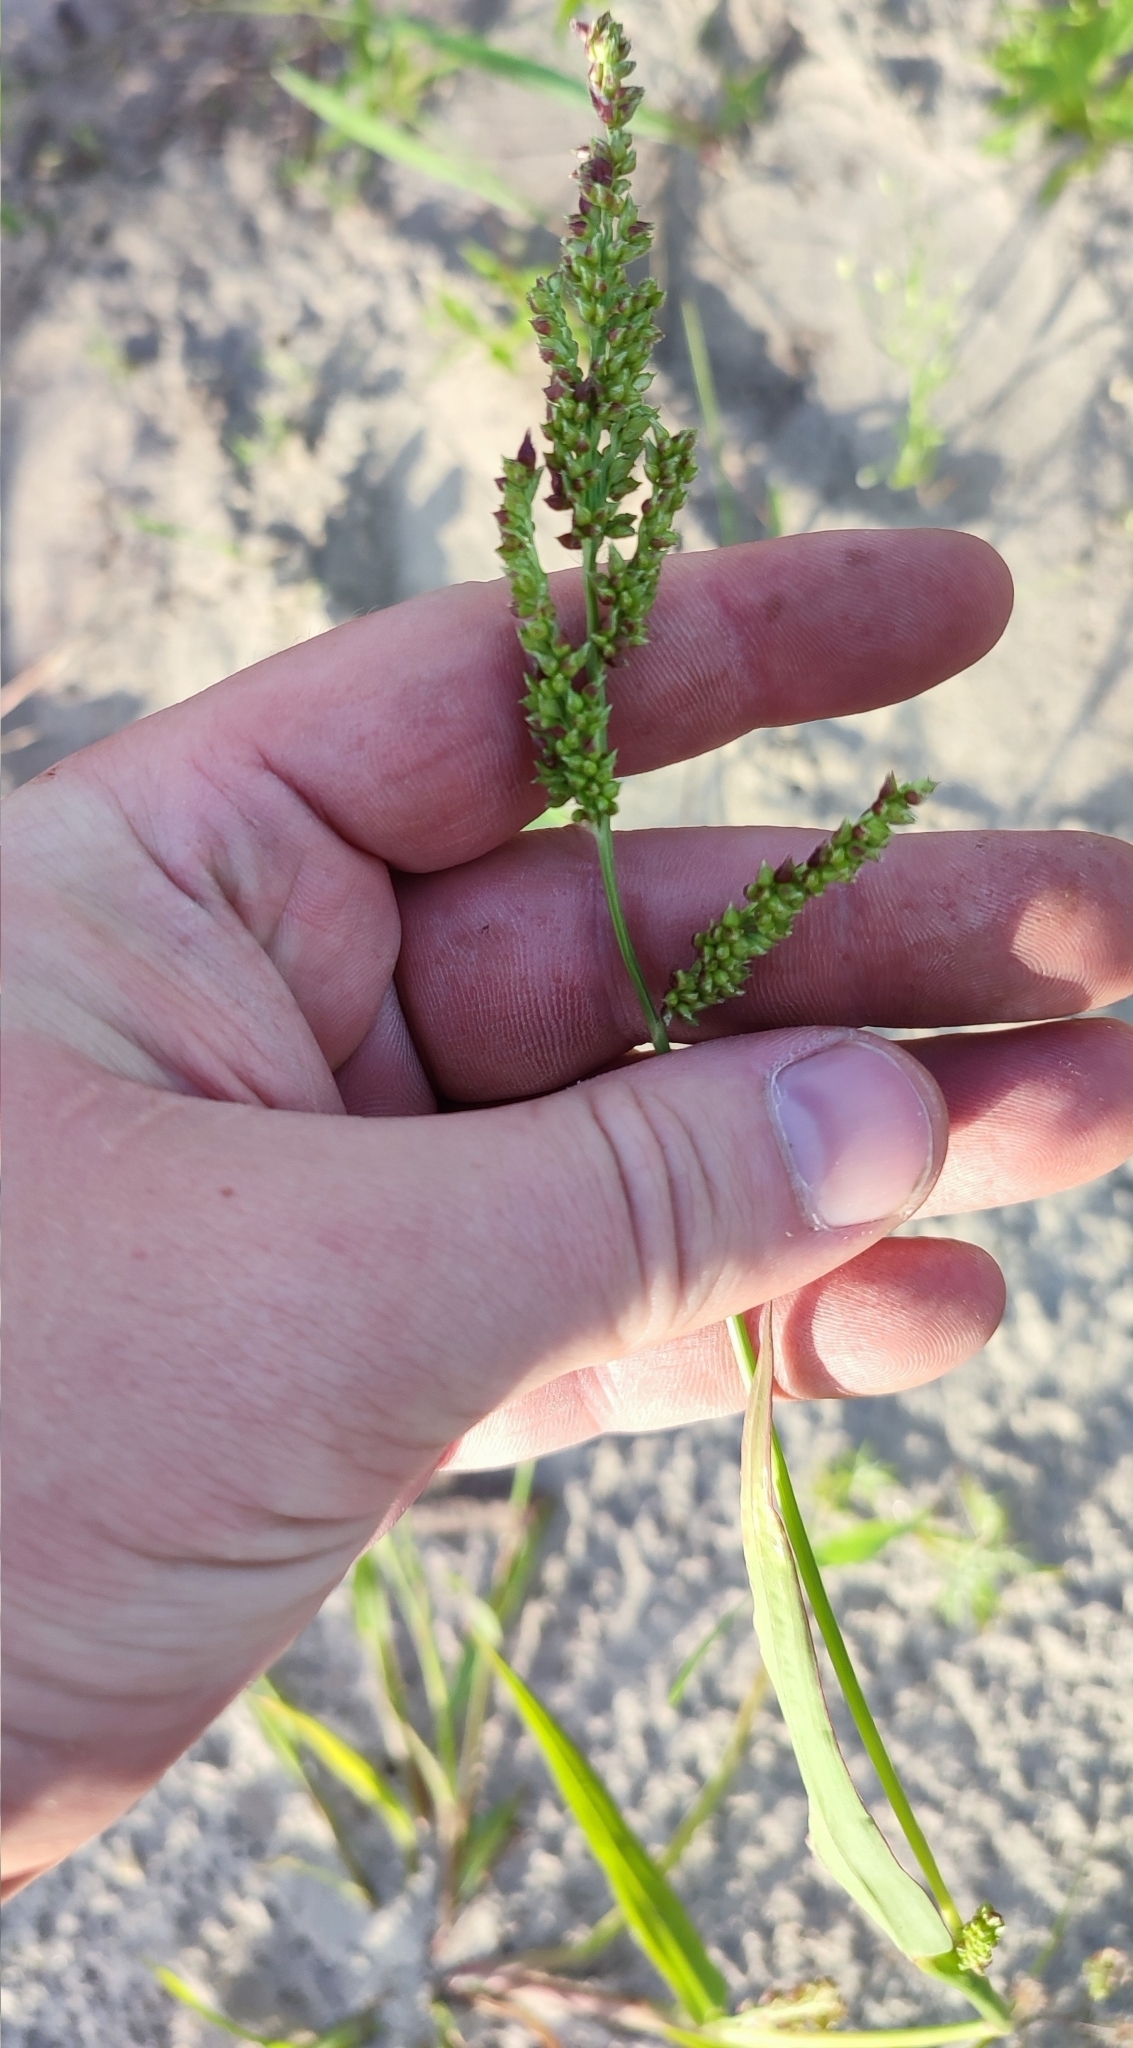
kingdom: Plantae
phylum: Tracheophyta
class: Liliopsida
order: Poales
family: Poaceae
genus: Echinochloa
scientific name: Echinochloa crus-galli
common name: Cockspur
